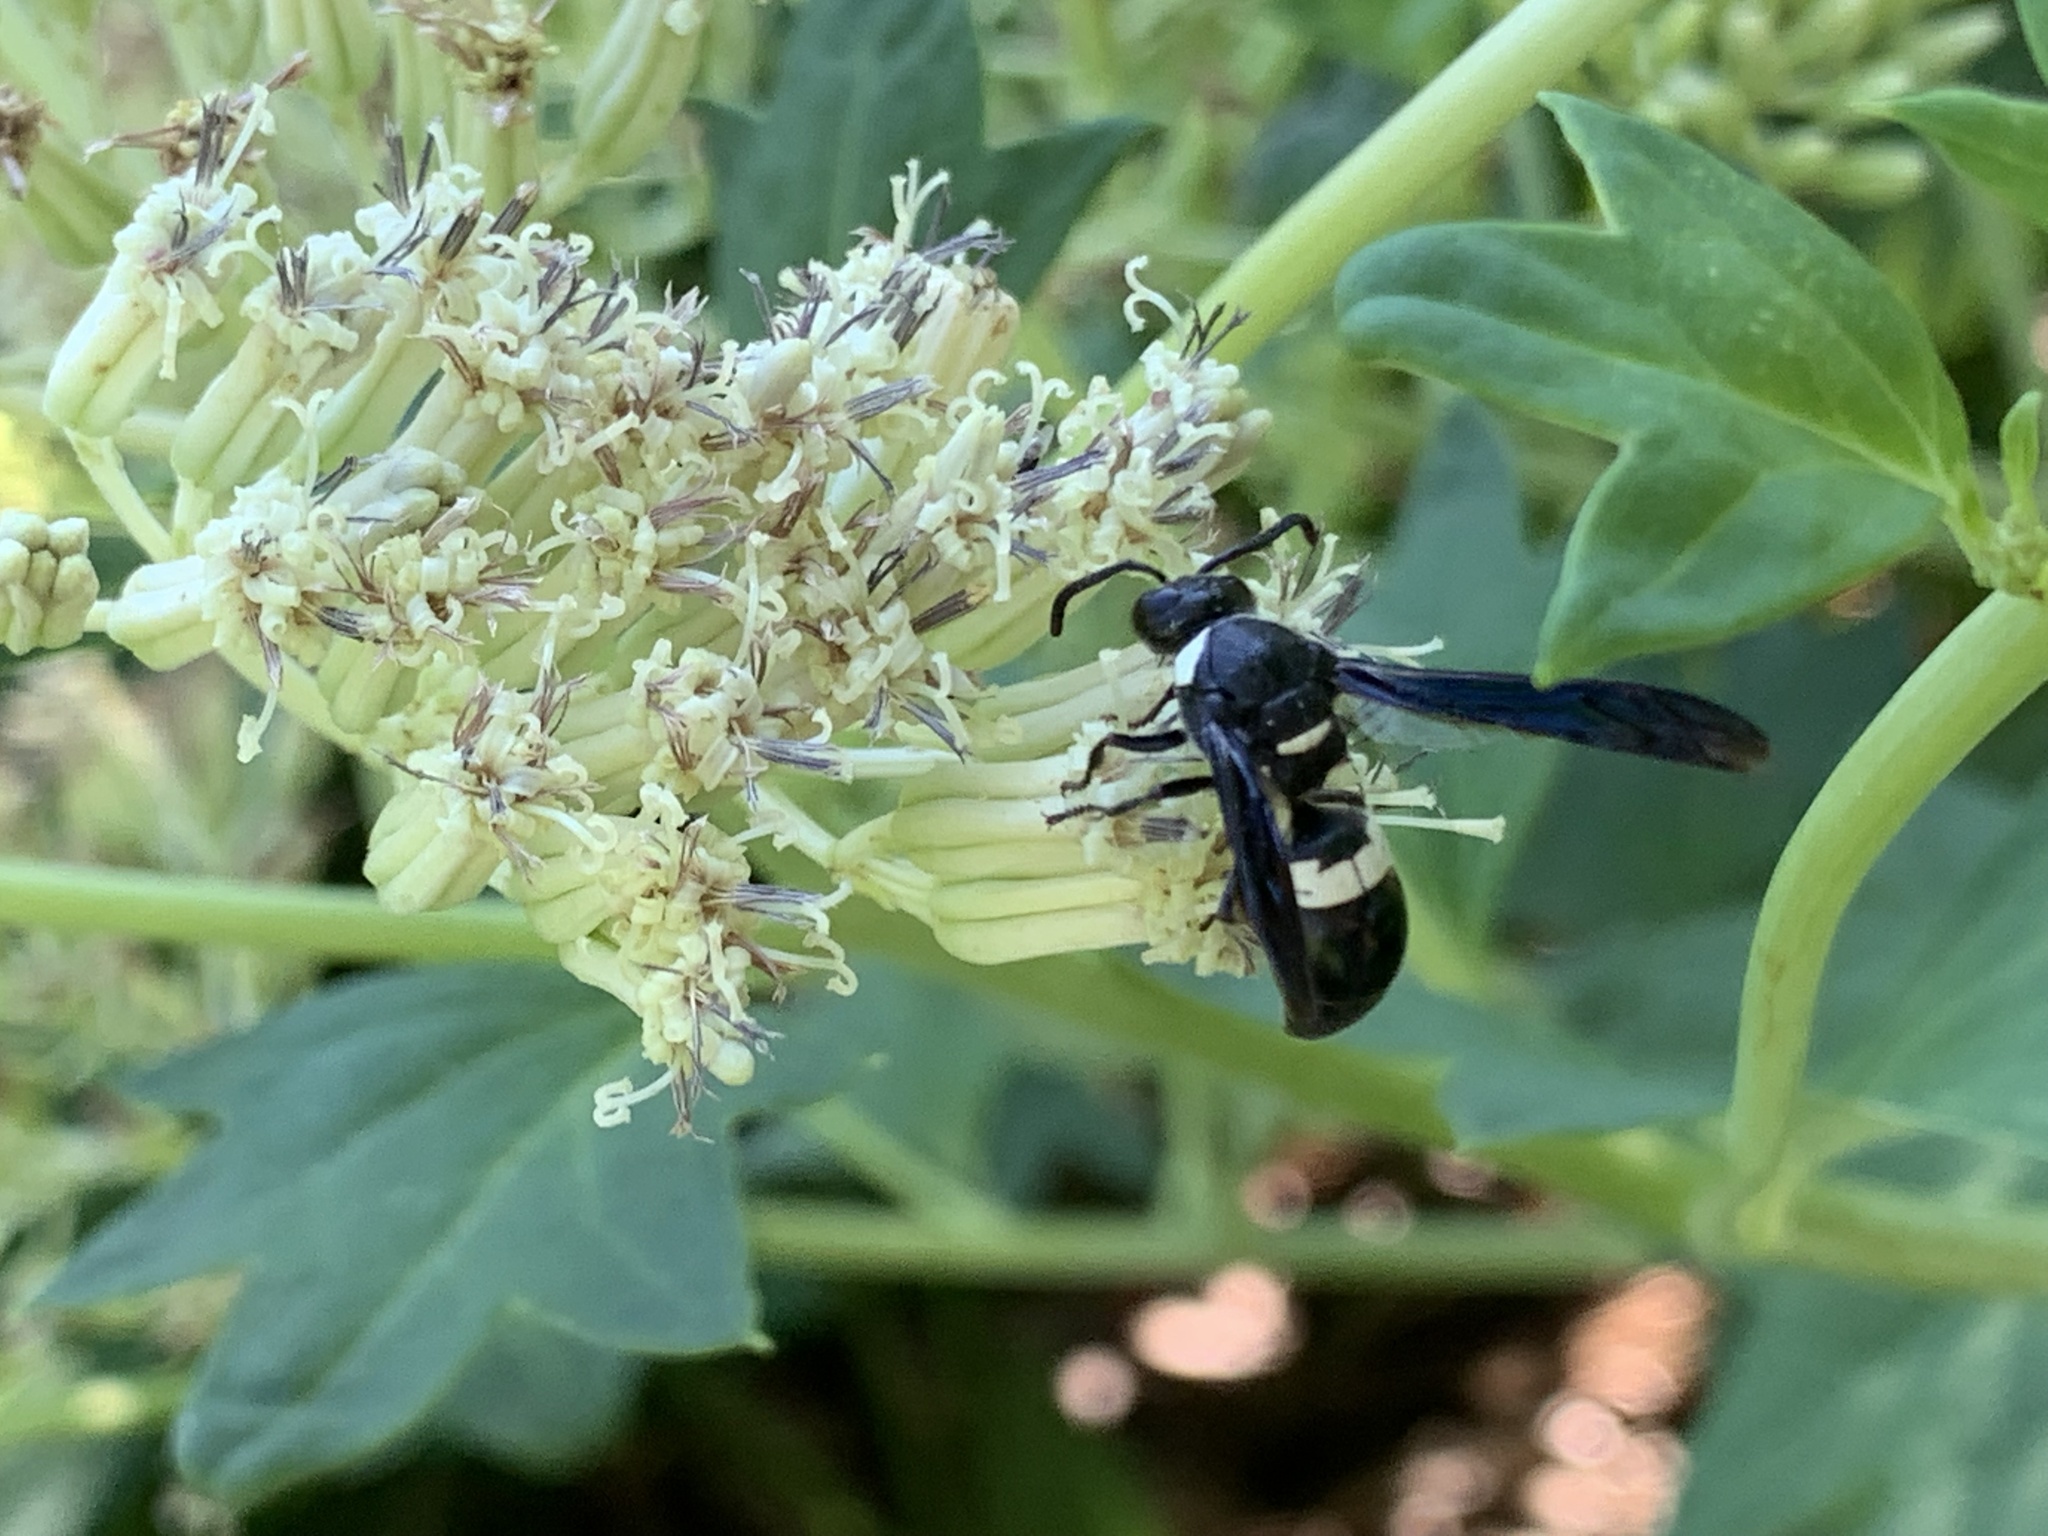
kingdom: Animalia
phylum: Arthropoda
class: Insecta
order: Hymenoptera
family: Eumenidae
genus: Monobia
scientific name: Monobia quadridens
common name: Four-toothed mason wasp
